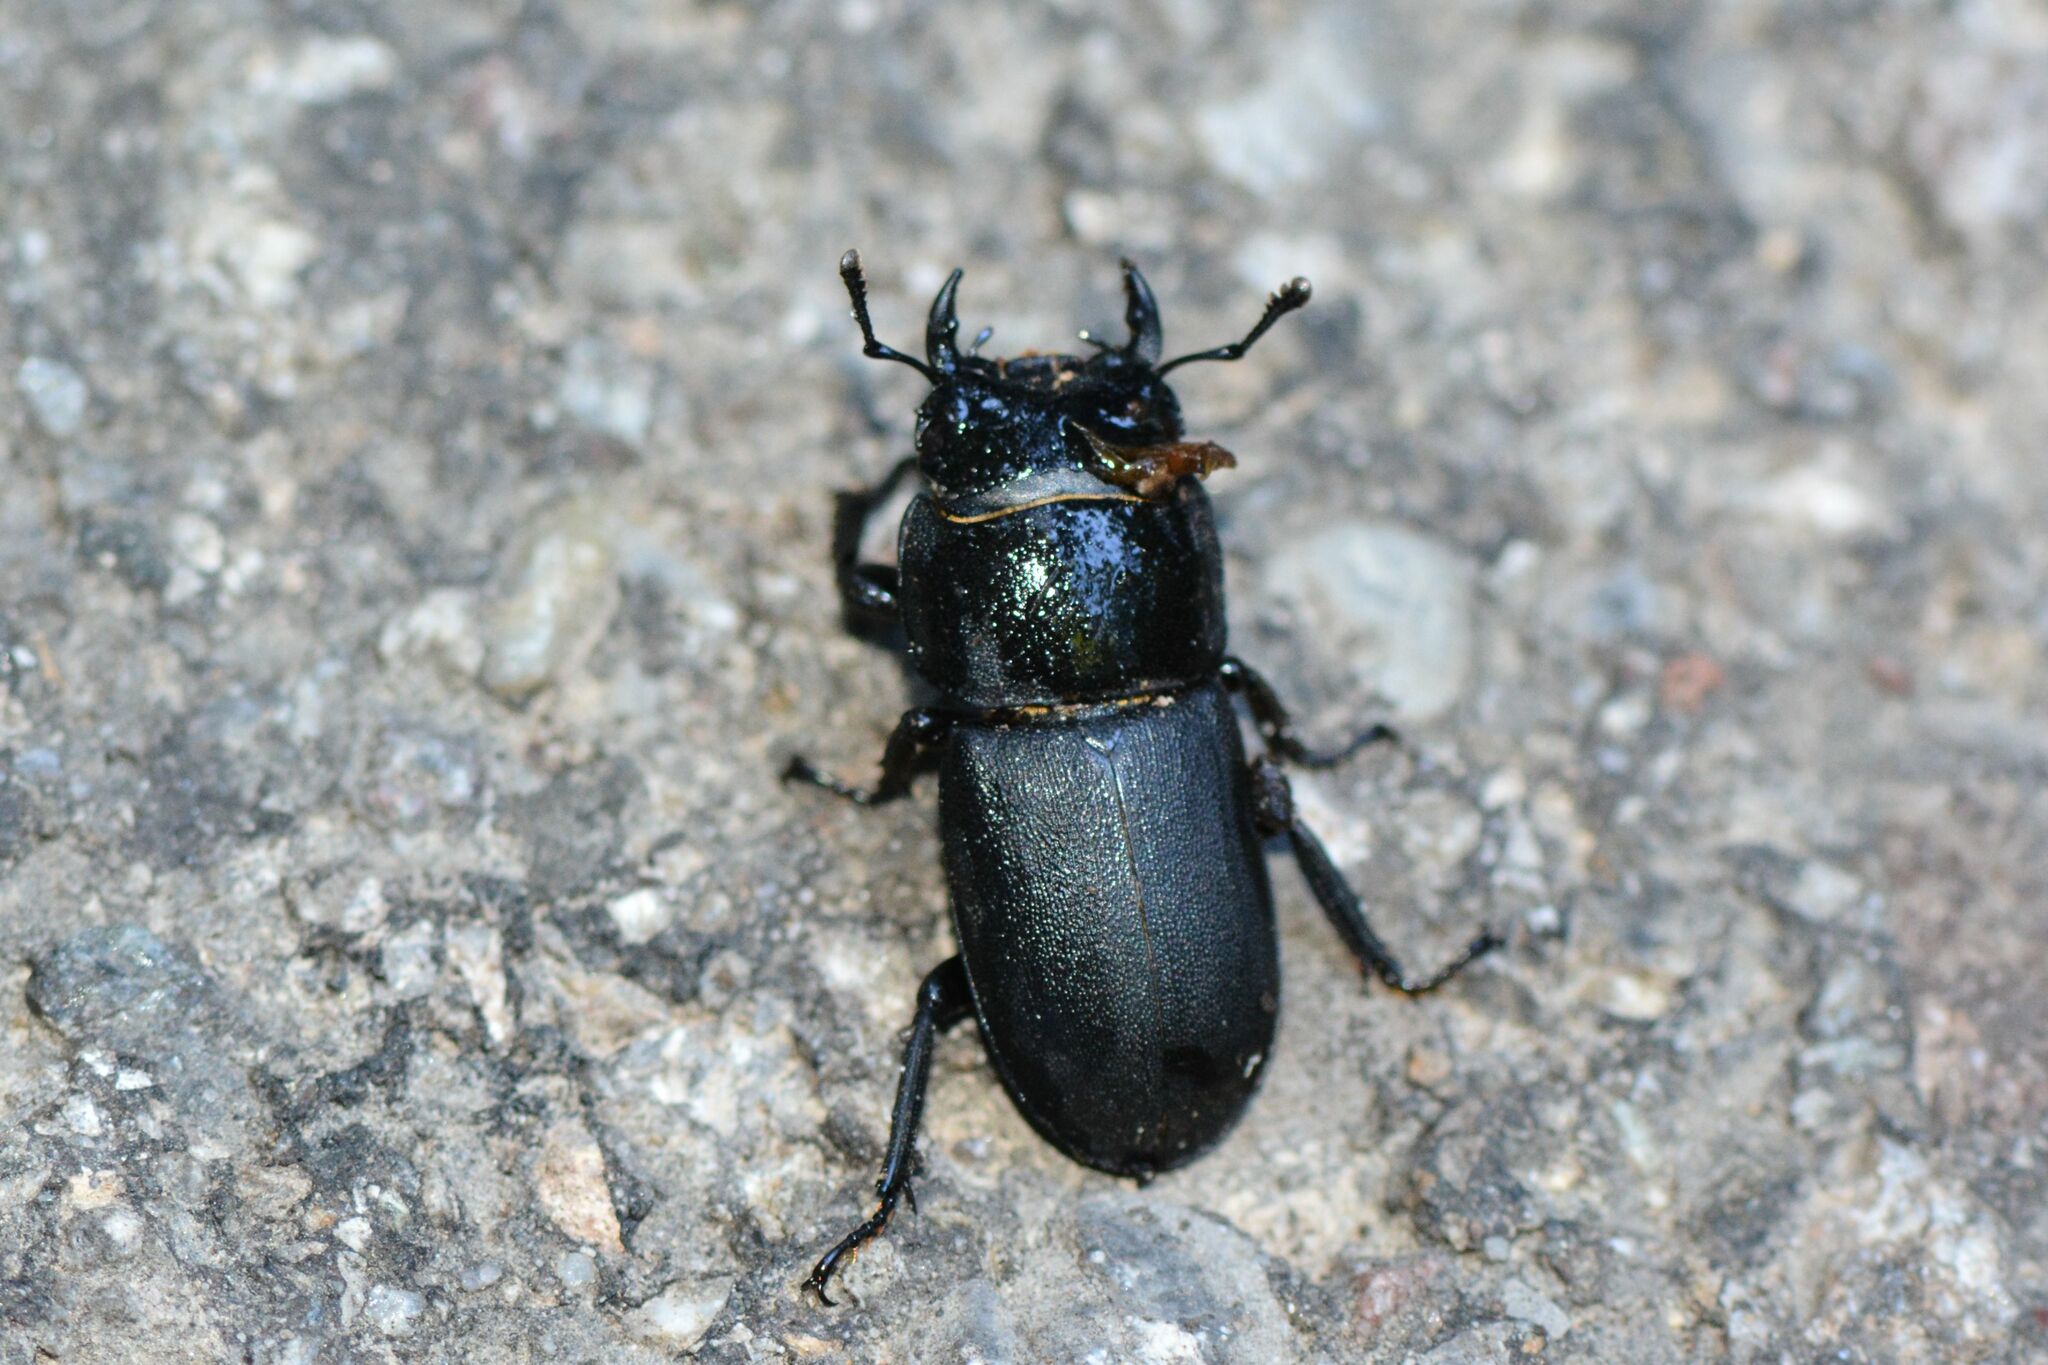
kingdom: Animalia
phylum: Arthropoda
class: Insecta
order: Coleoptera
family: Lucanidae
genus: Dorcus
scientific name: Dorcus parallelipipedus
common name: Lesser stag beetle
